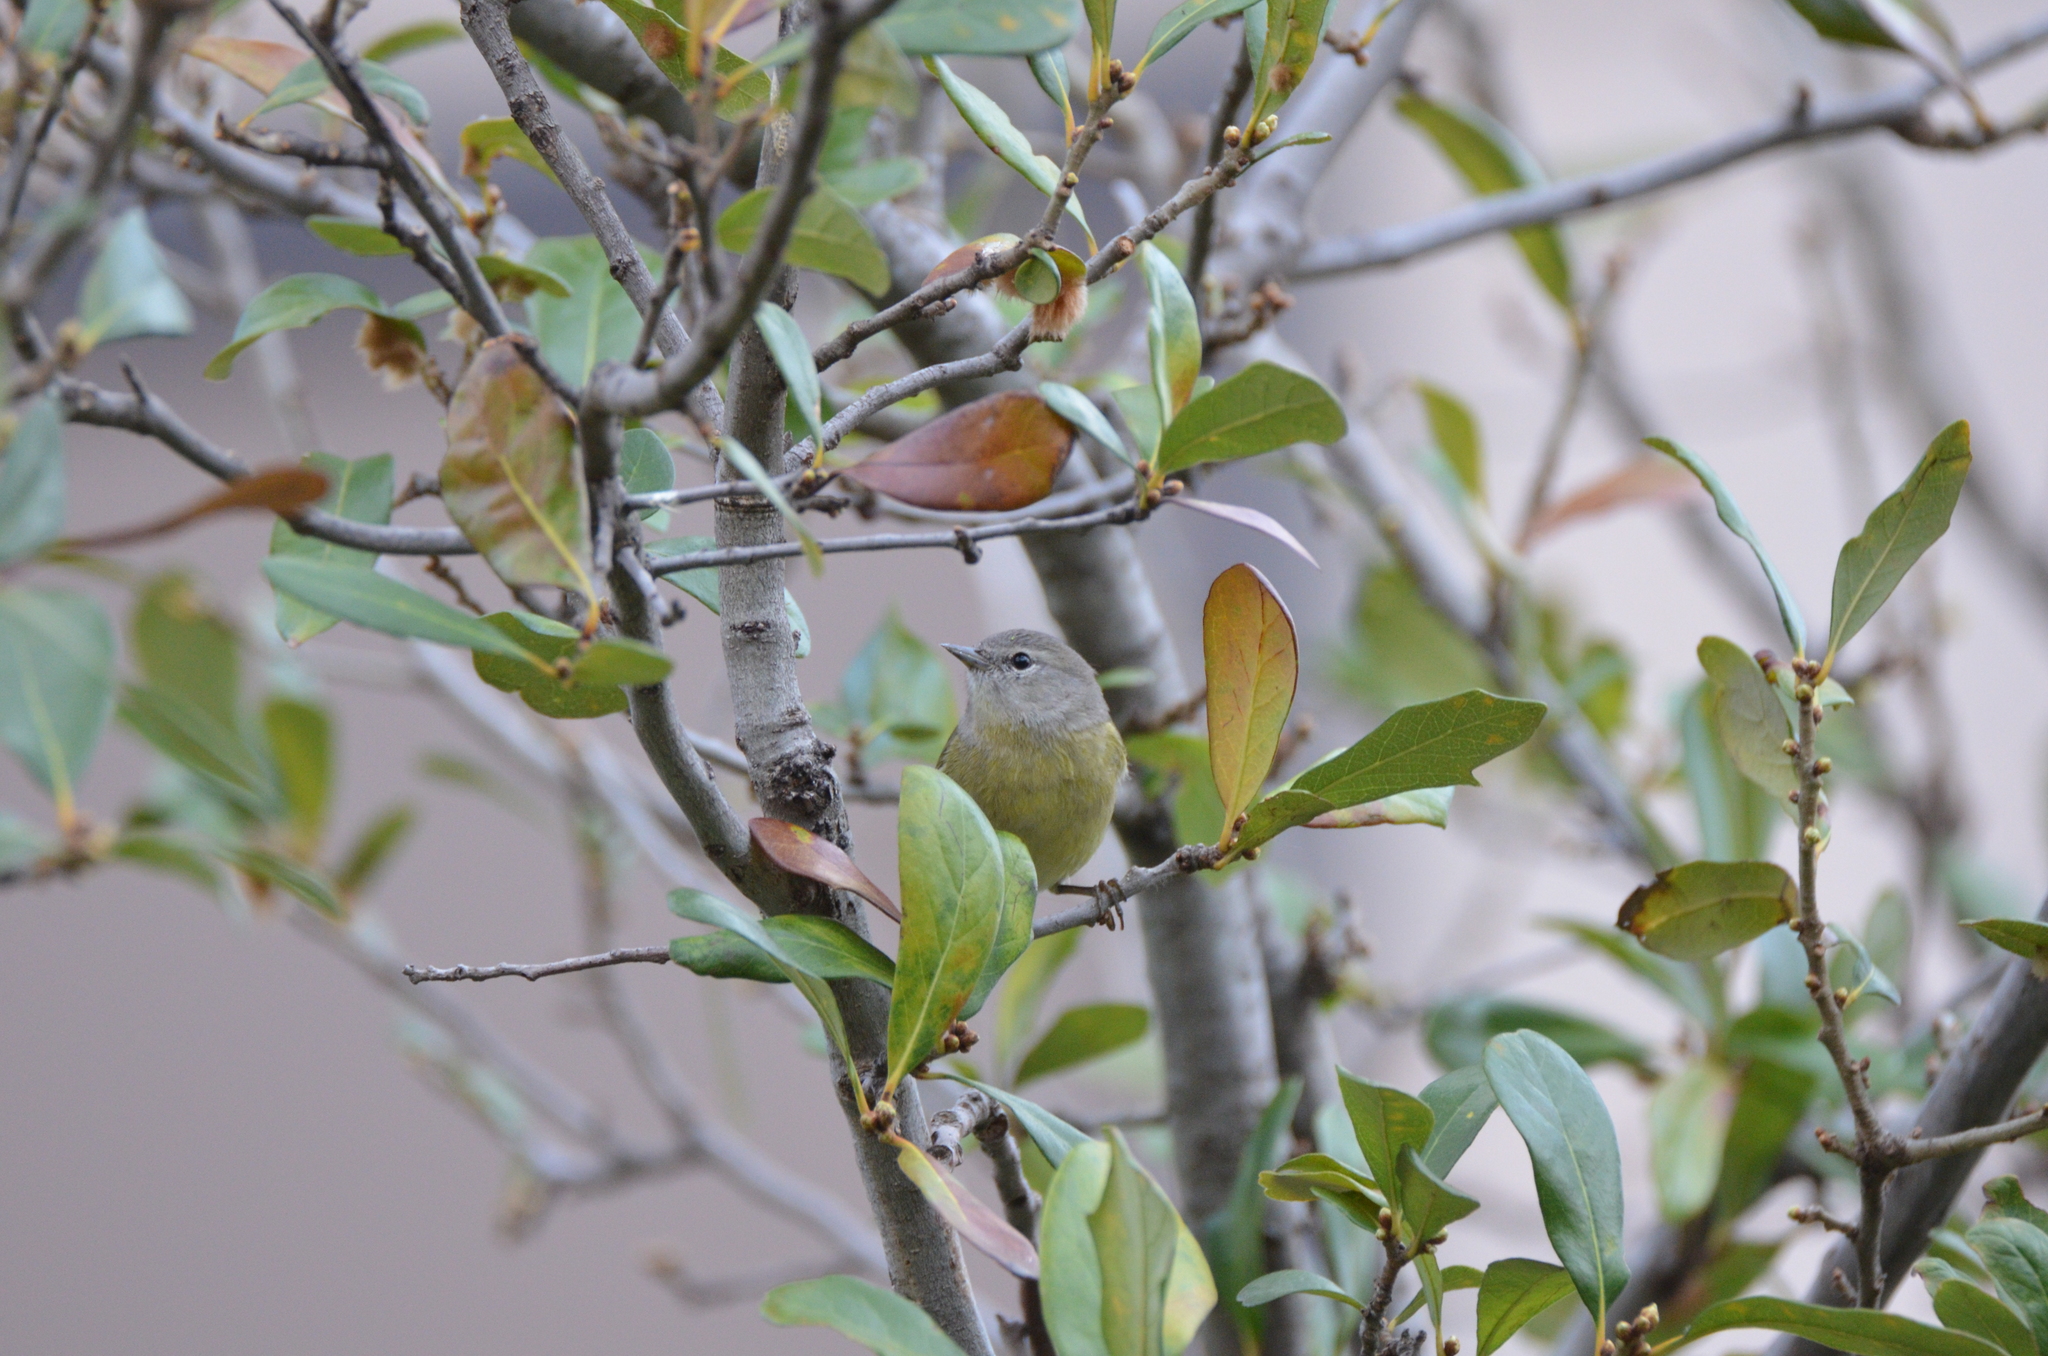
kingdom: Animalia
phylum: Chordata
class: Aves
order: Passeriformes
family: Parulidae
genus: Leiothlypis
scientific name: Leiothlypis celata
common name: Orange-crowned warbler
